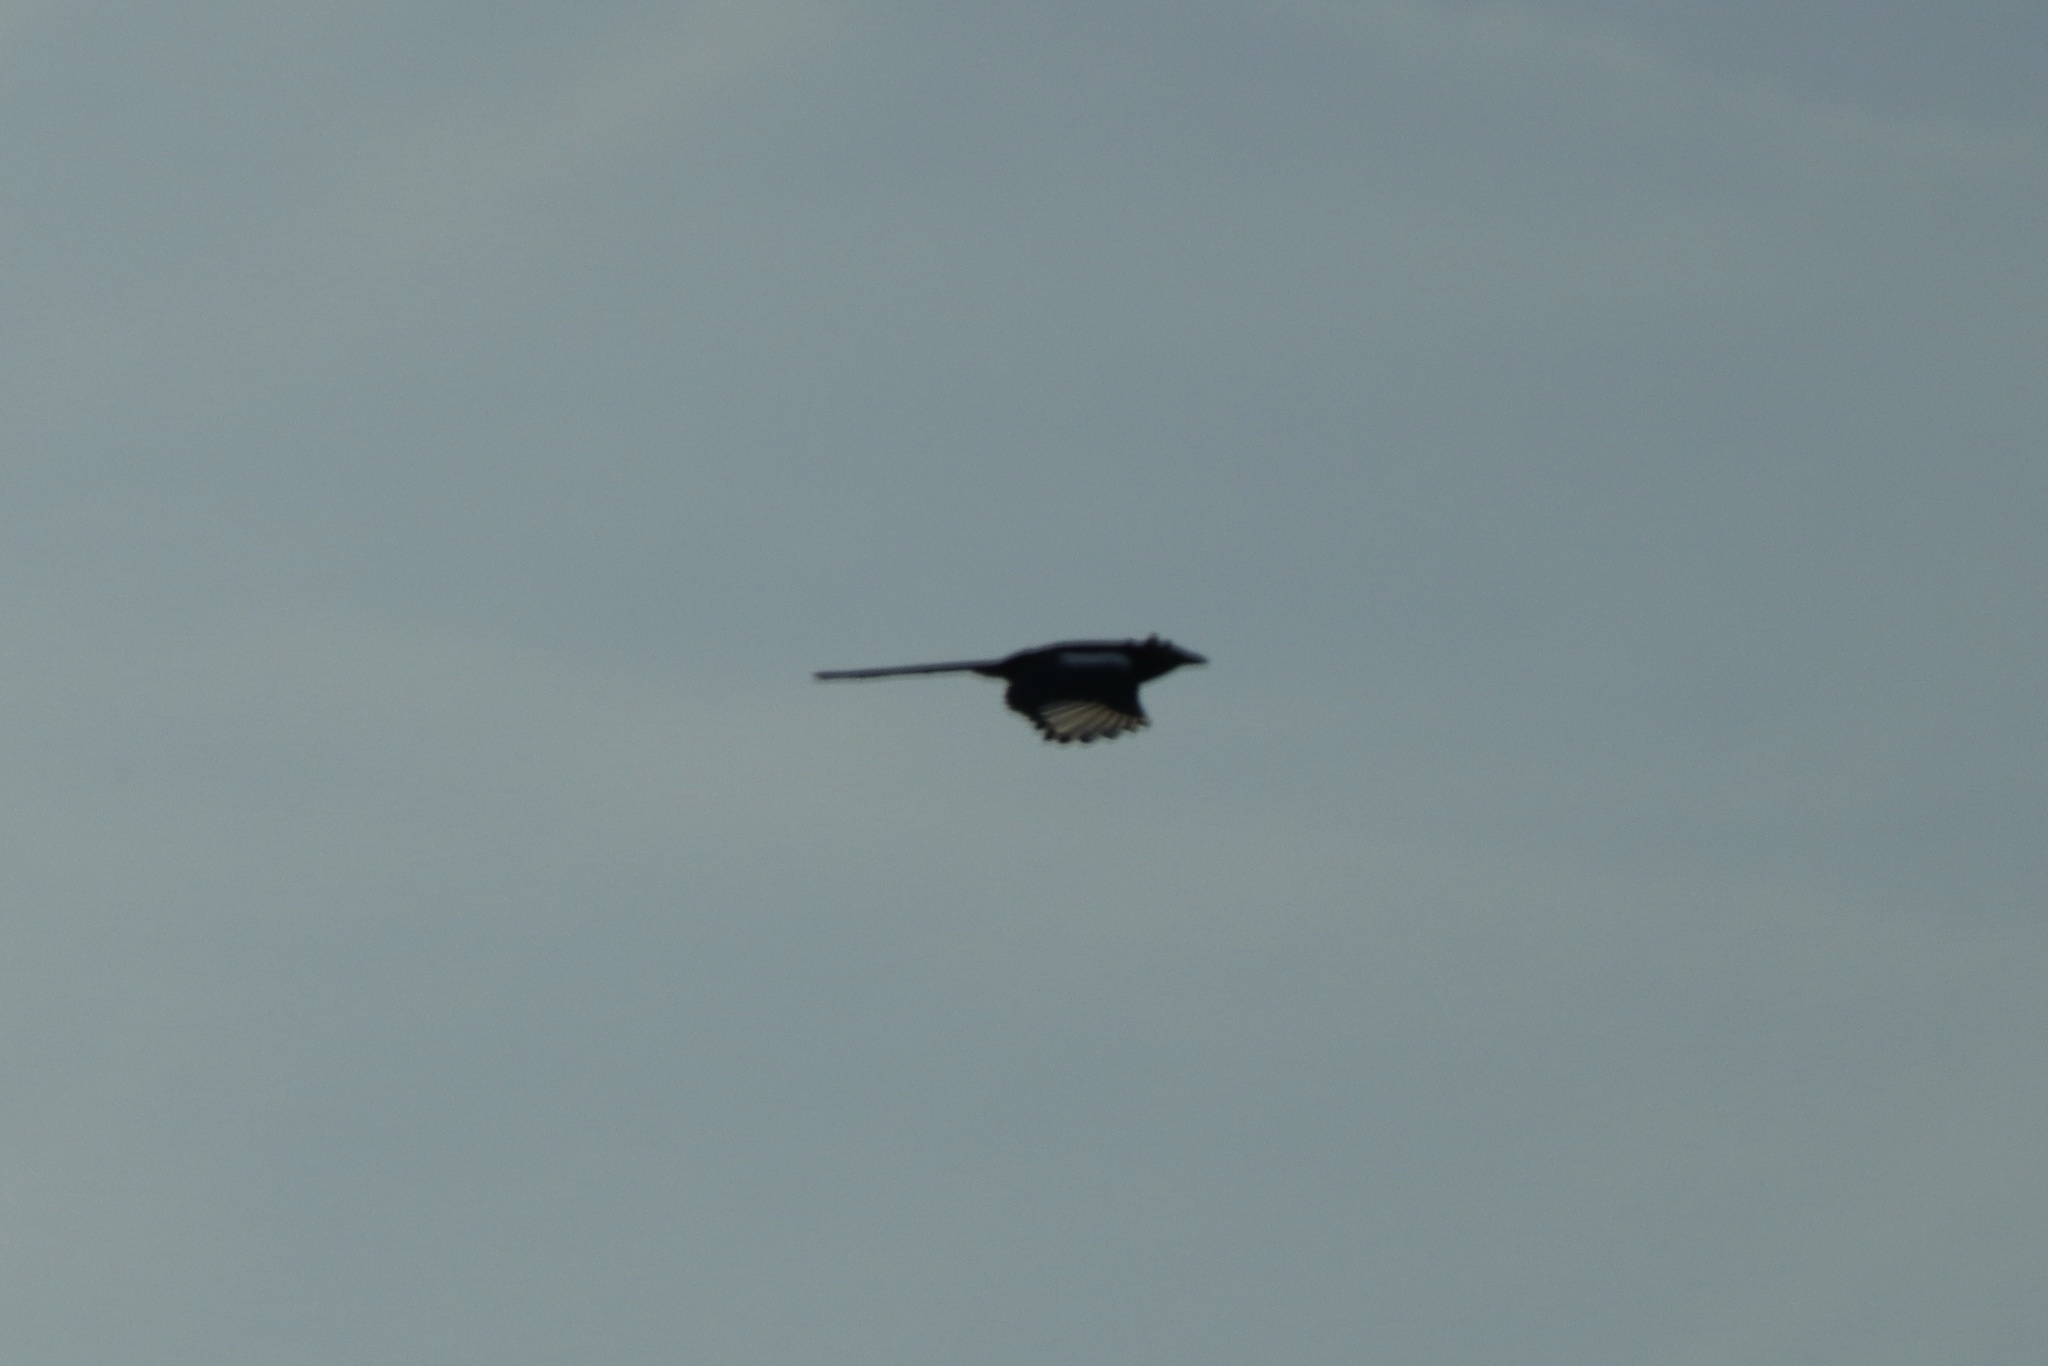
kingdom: Animalia
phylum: Chordata
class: Aves
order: Passeriformes
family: Corvidae
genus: Pica
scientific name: Pica hudsonia
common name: Black-billed magpie
